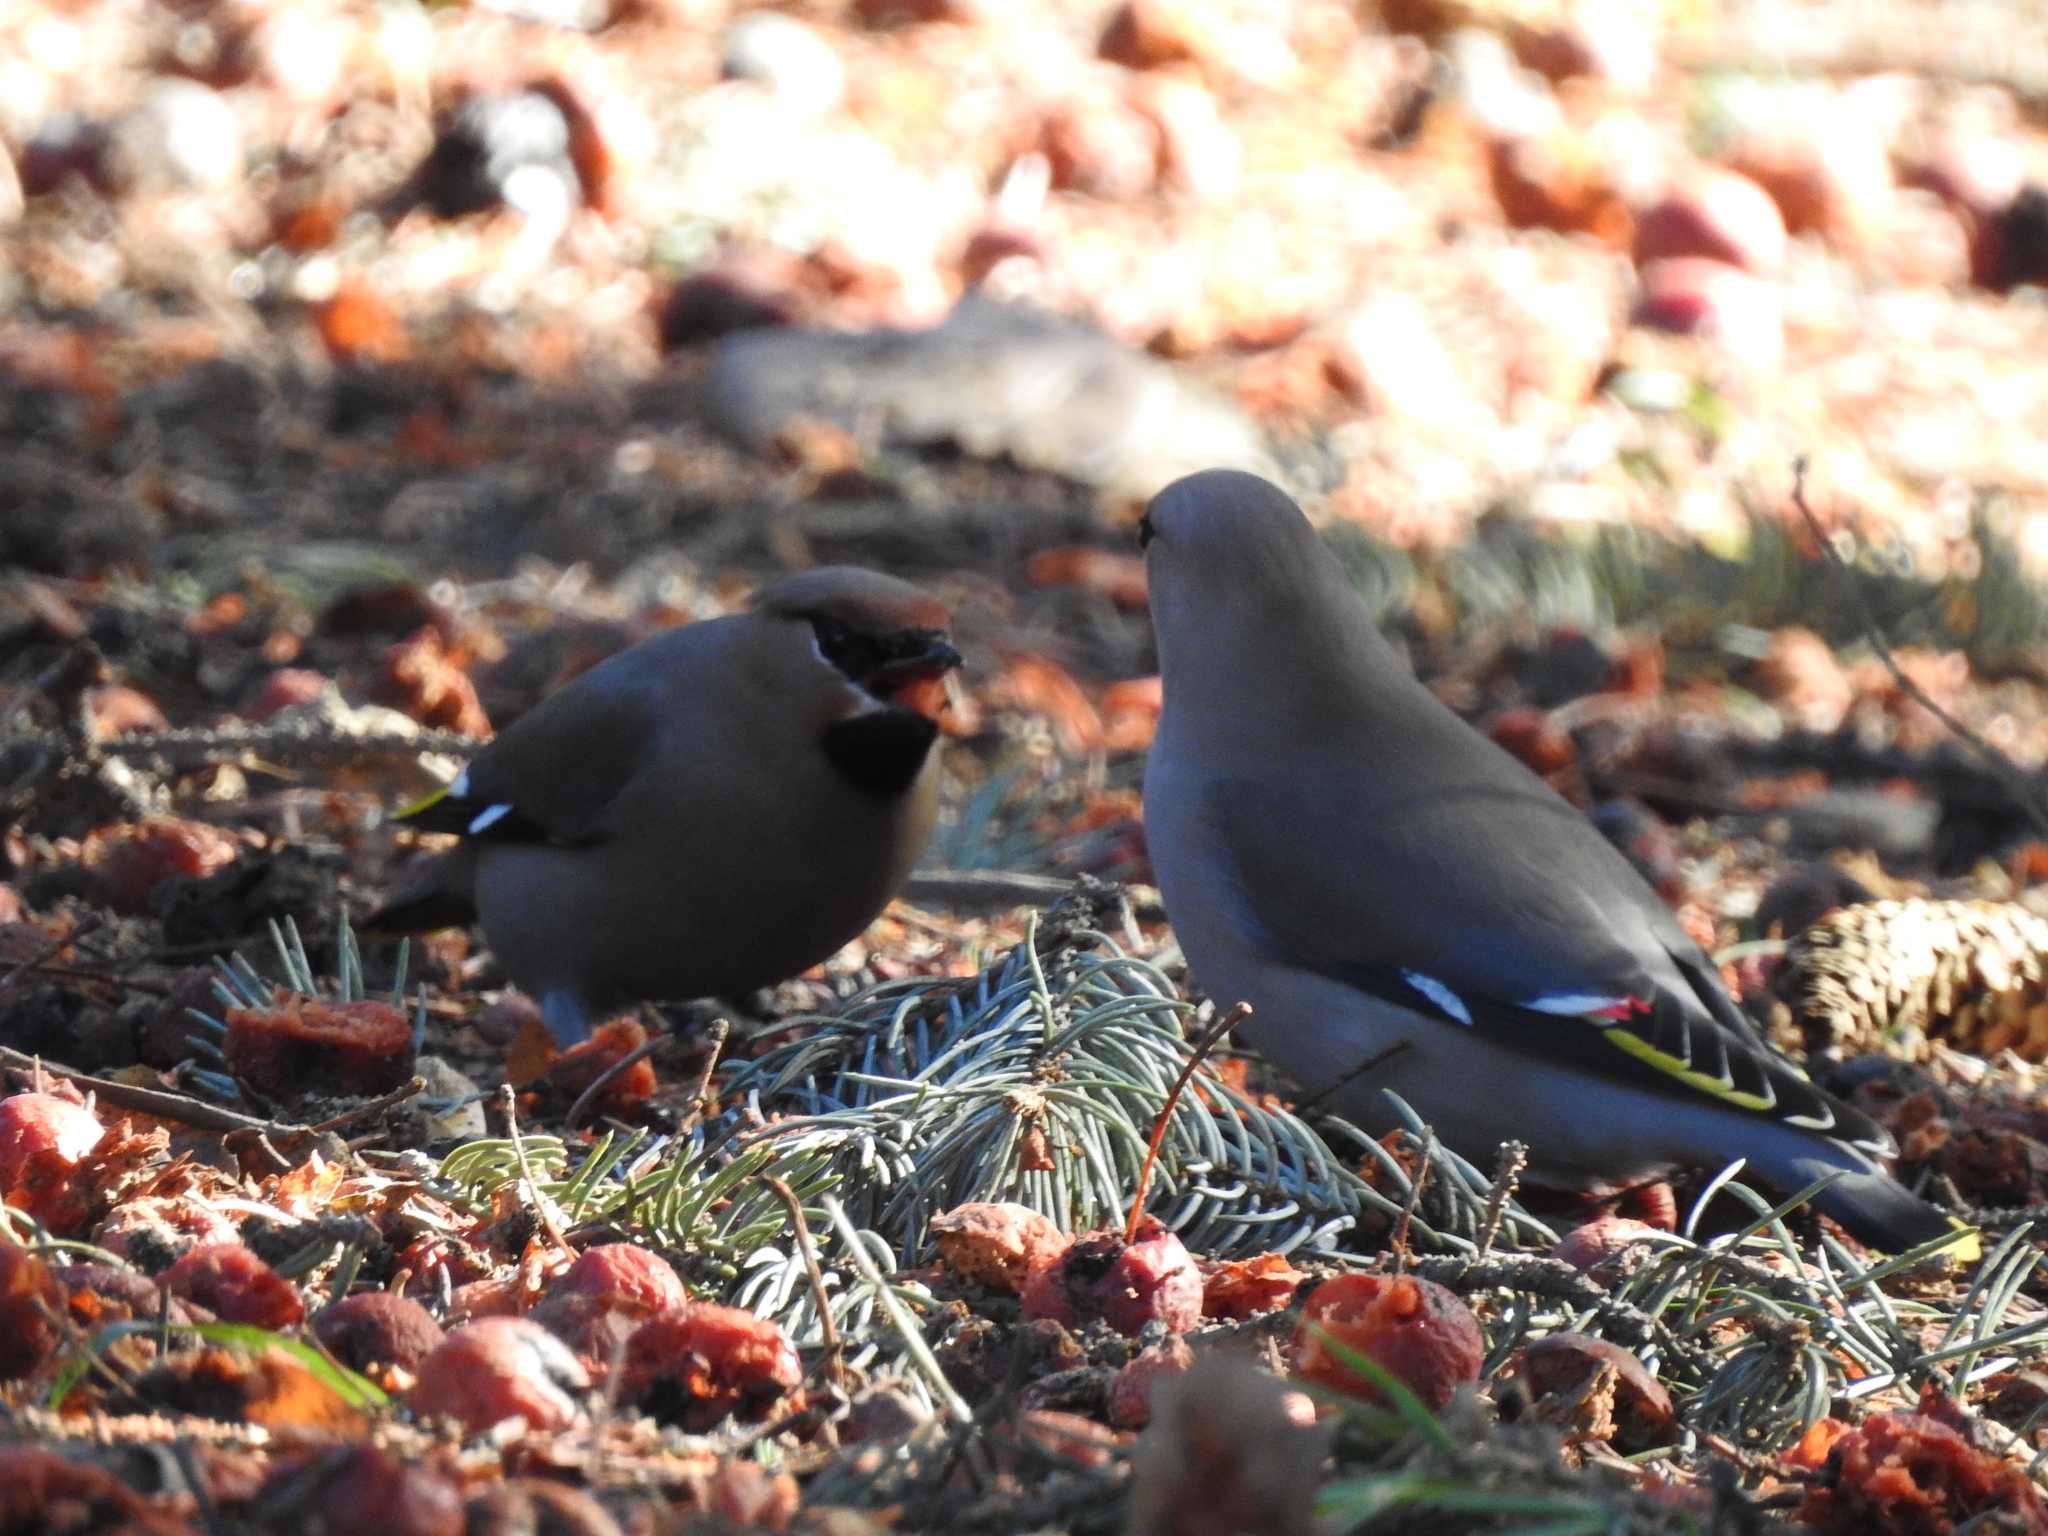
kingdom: Animalia
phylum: Chordata
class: Aves
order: Passeriformes
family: Bombycillidae
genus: Bombycilla
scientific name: Bombycilla garrulus
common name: Bohemian waxwing
